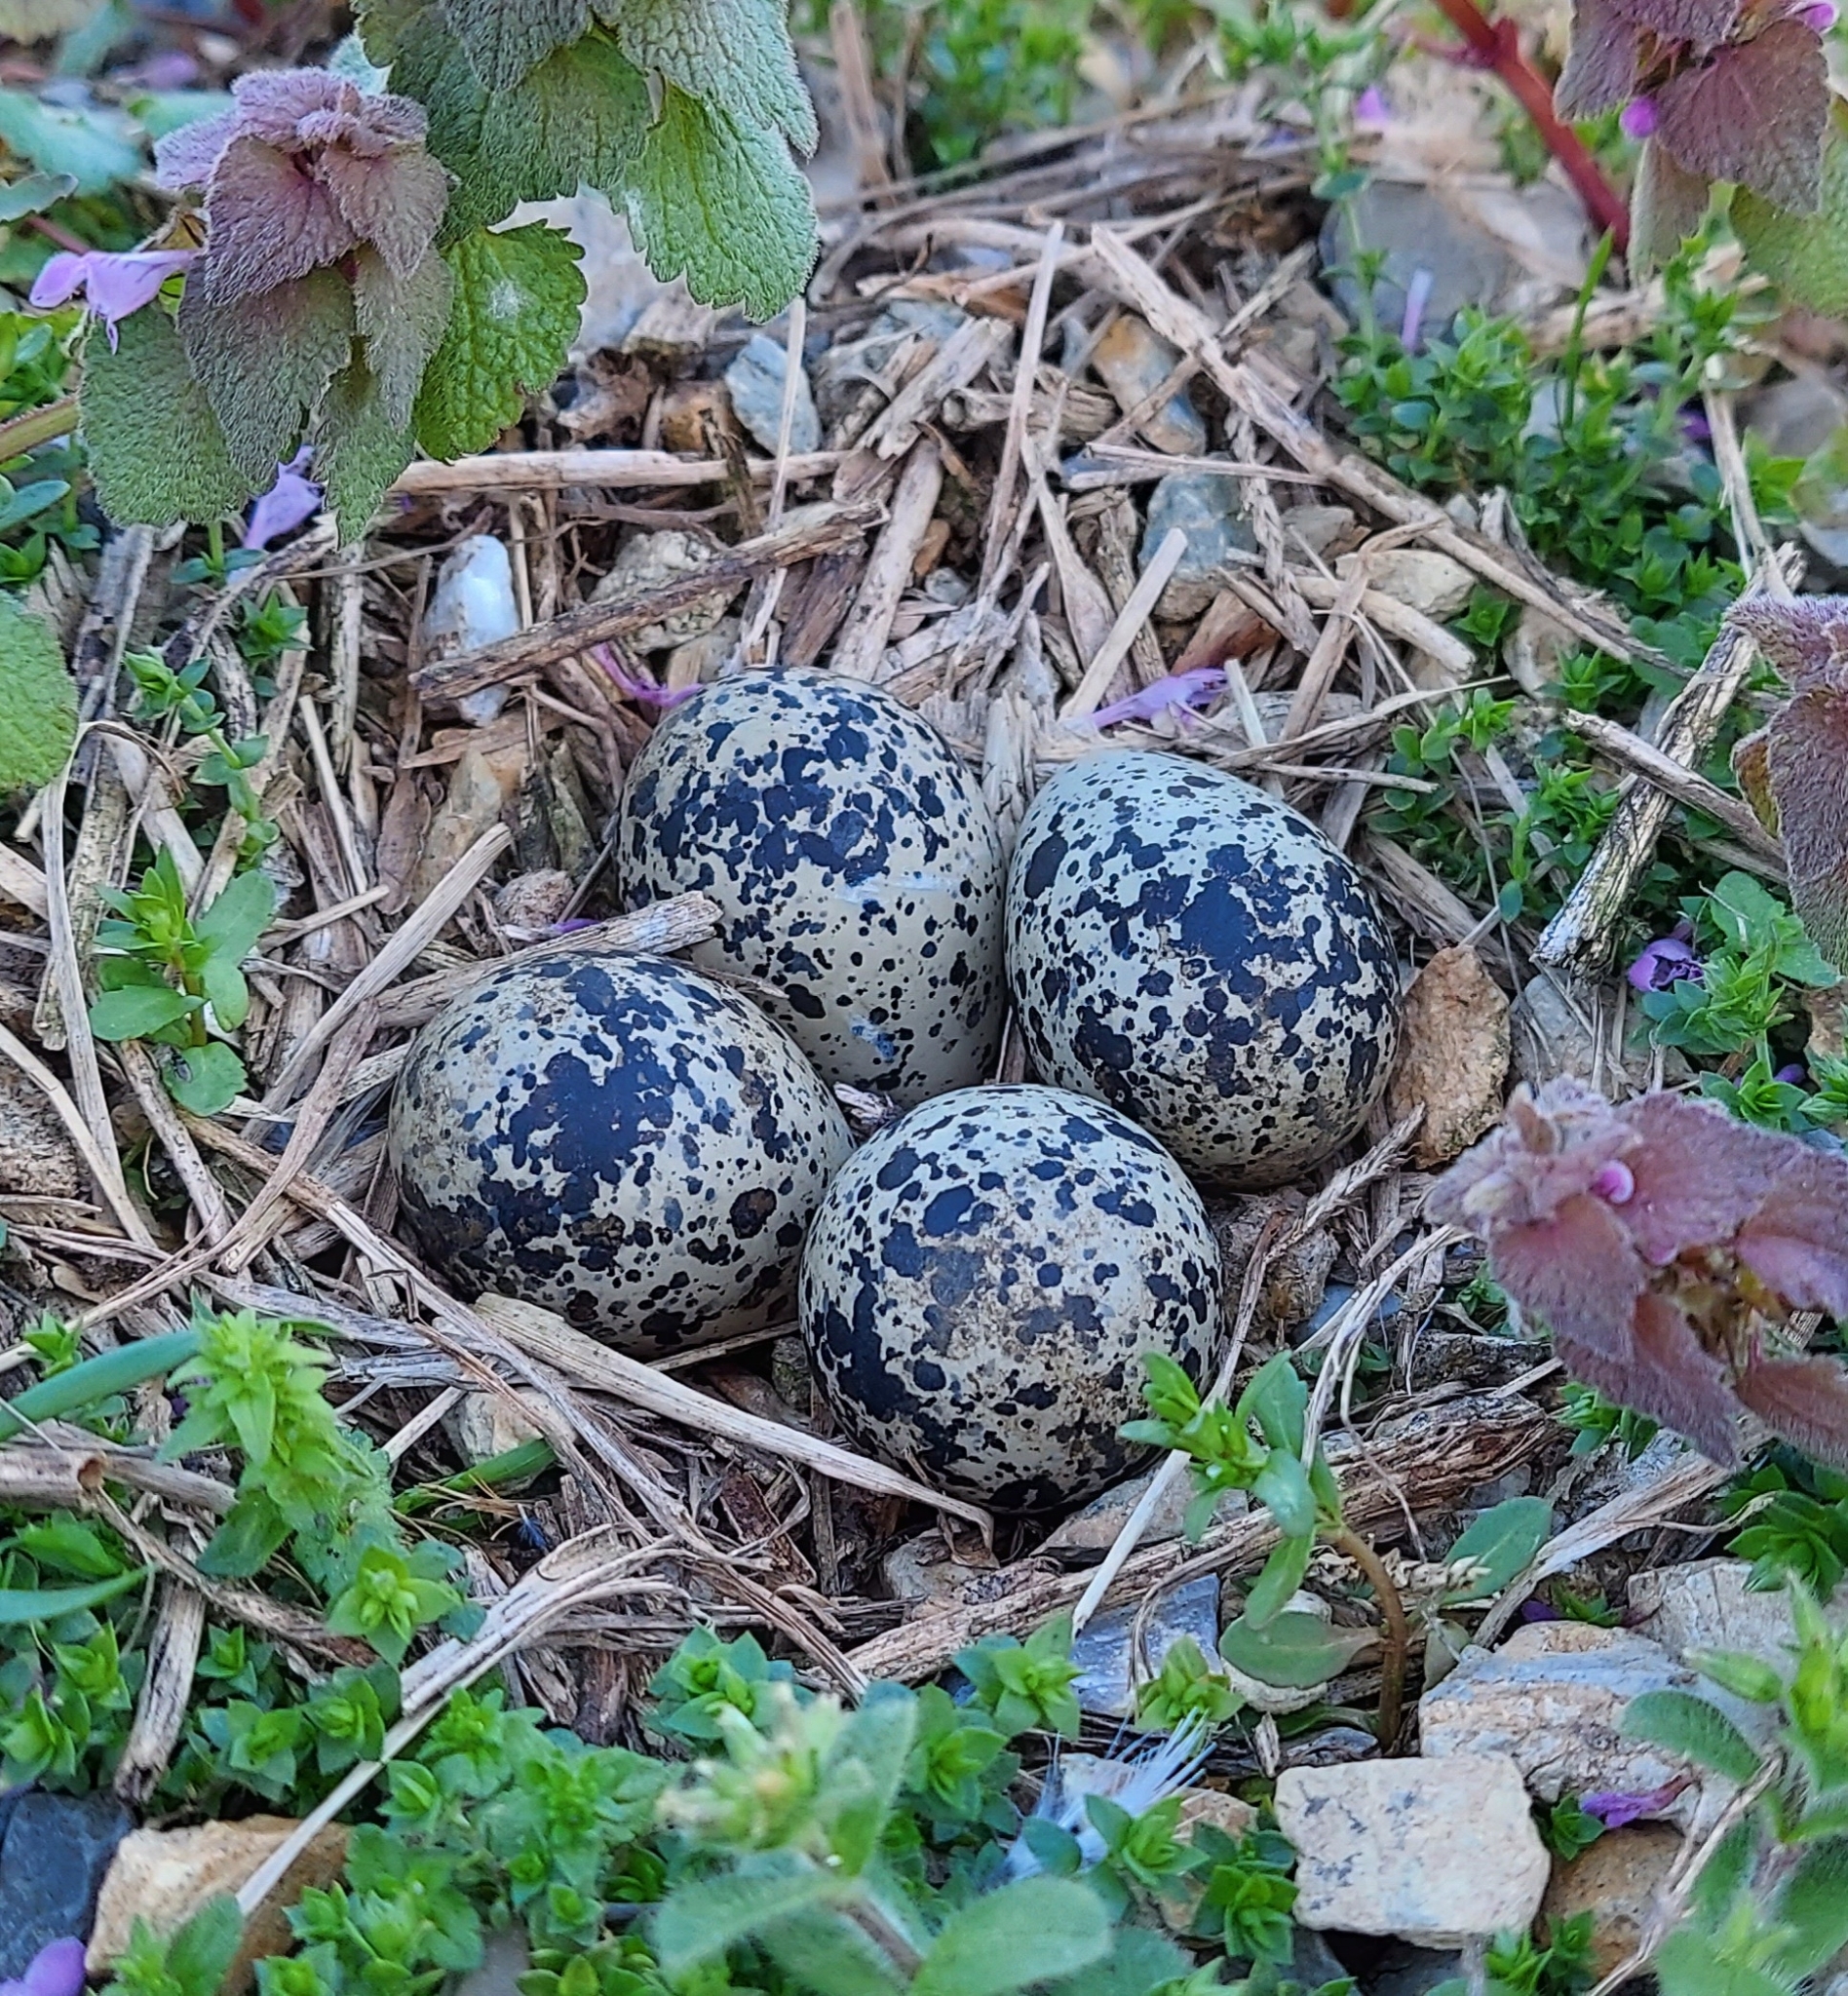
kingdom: Animalia
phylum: Chordata
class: Aves
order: Charadriiformes
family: Charadriidae
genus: Charadrius
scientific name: Charadrius vociferus
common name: Killdeer
